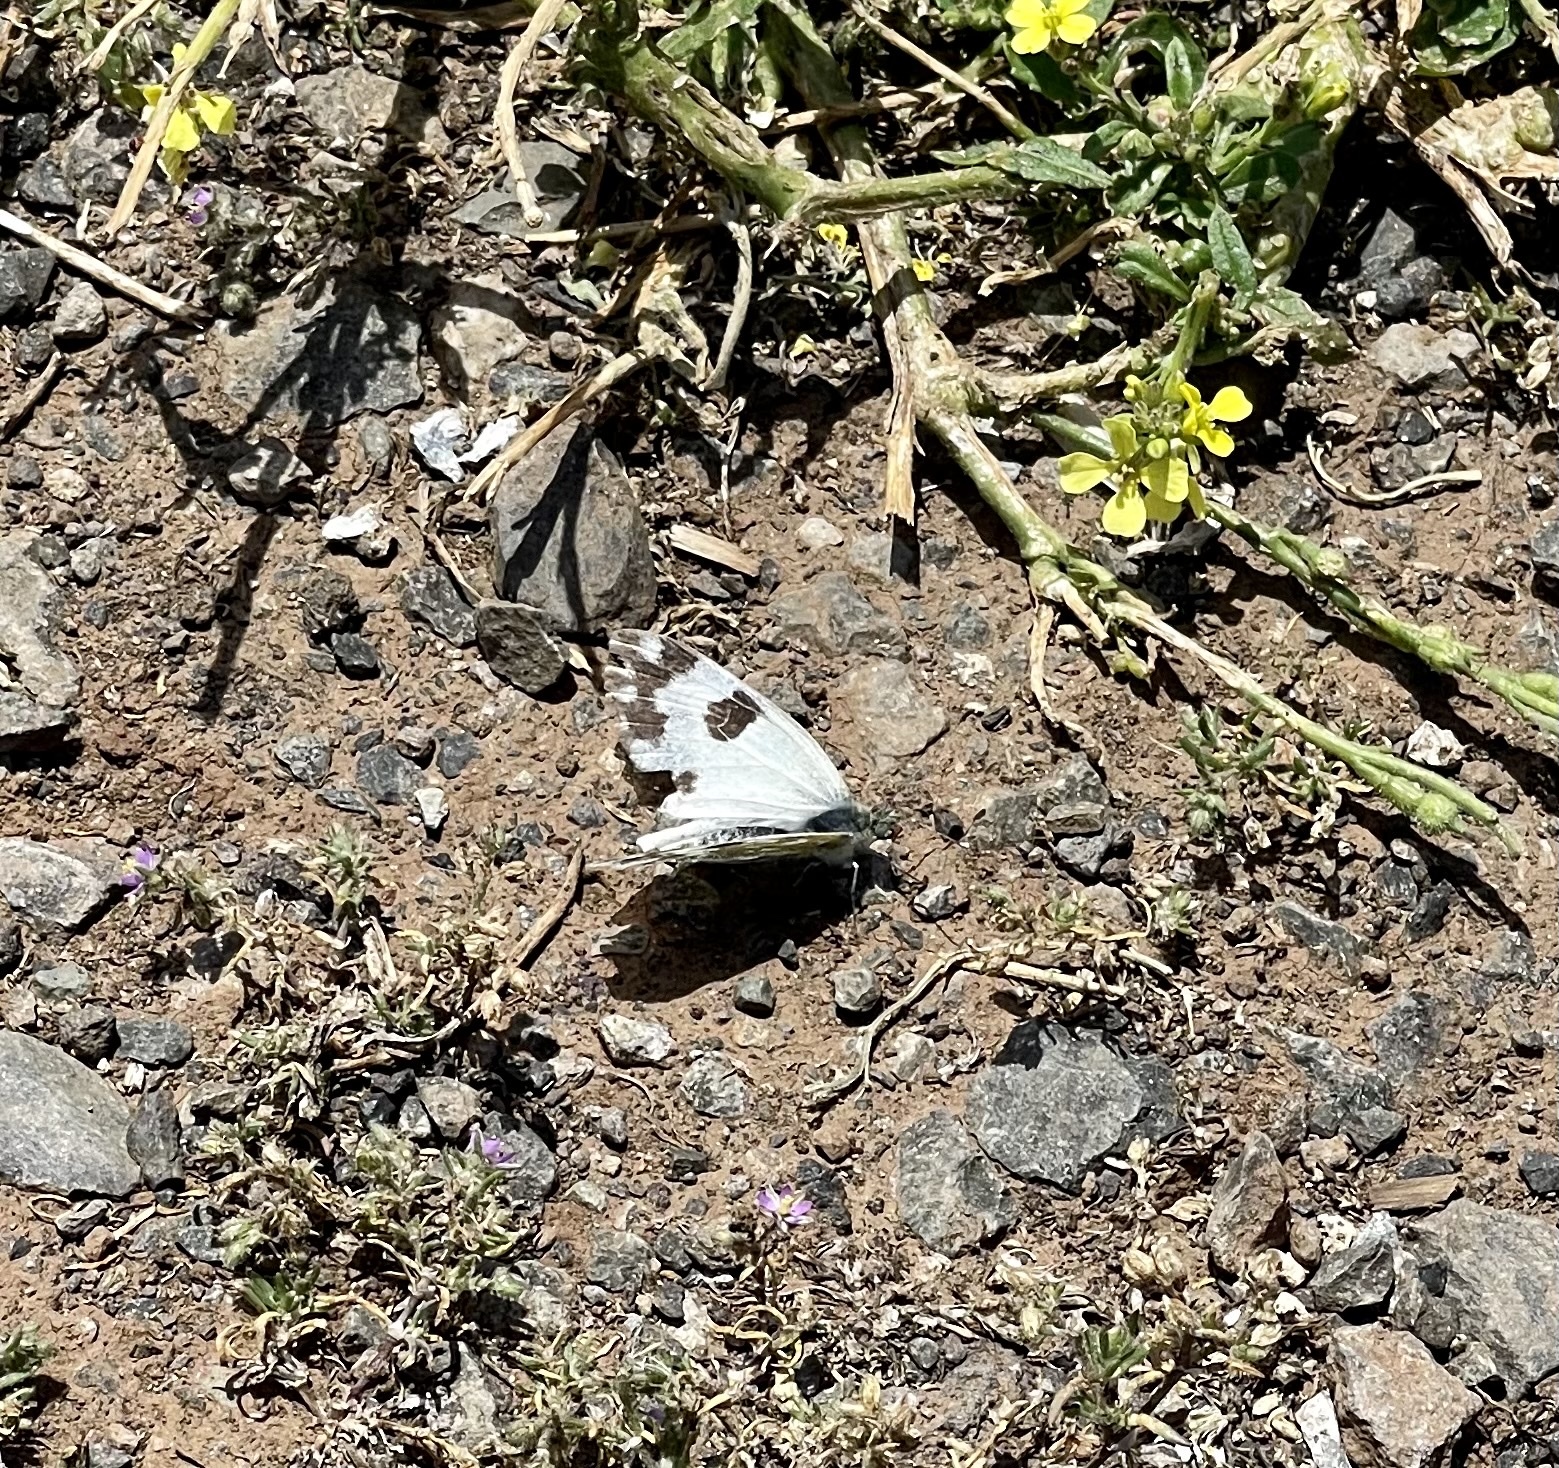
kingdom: Animalia
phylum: Arthropoda
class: Insecta
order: Lepidoptera
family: Pieridae
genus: Pontia
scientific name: Pontia daplidice
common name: Bath white
